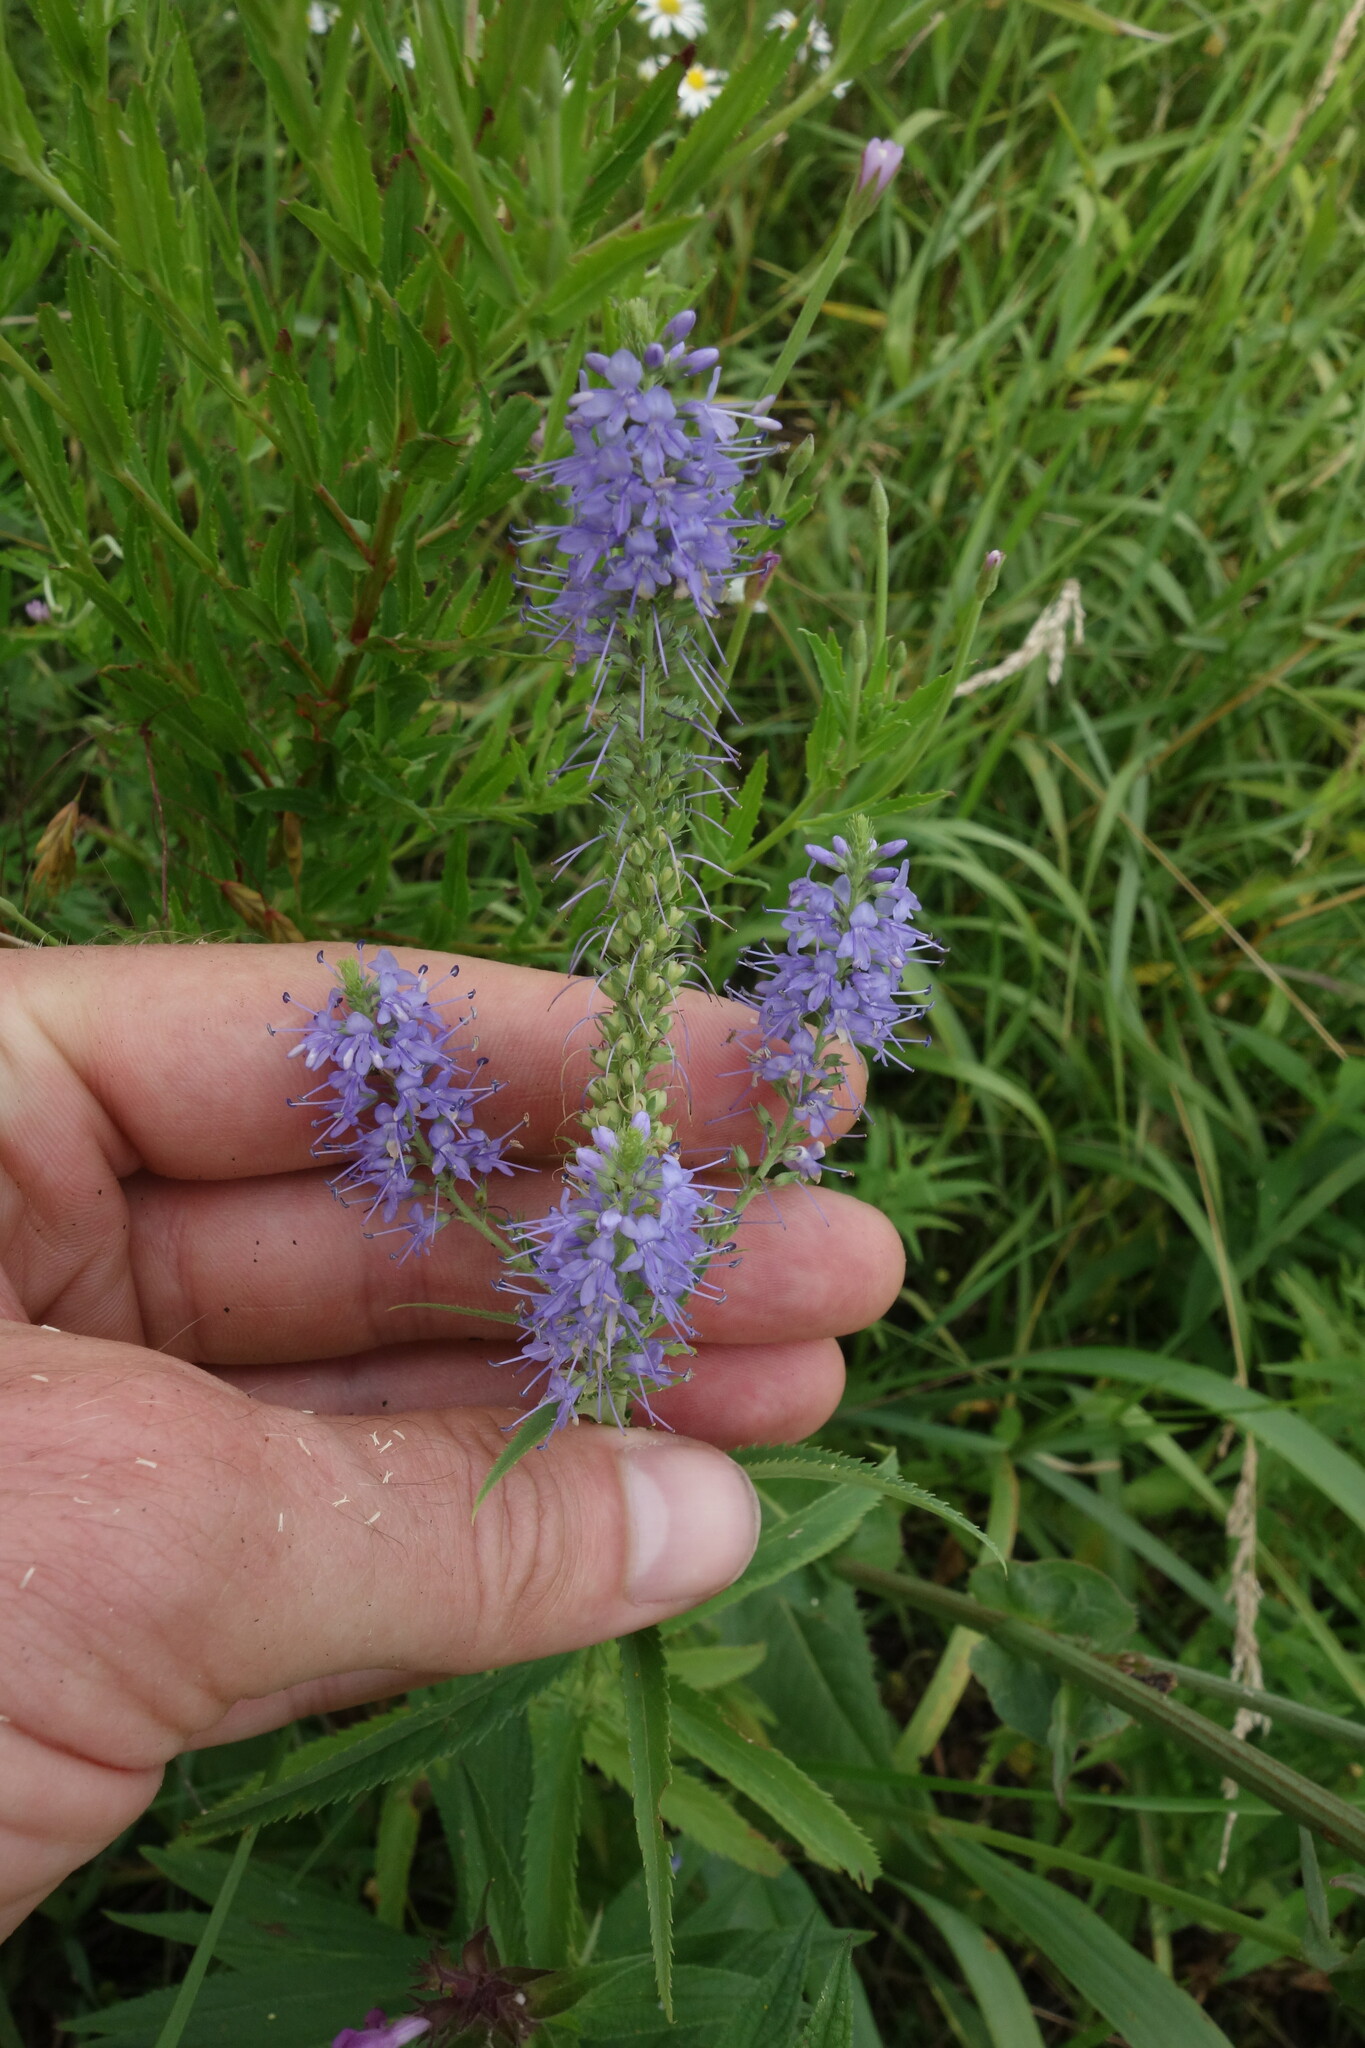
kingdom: Plantae
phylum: Tracheophyta
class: Magnoliopsida
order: Lamiales
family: Plantaginaceae
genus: Veronica
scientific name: Veronica longifolia
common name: Garden speedwell
